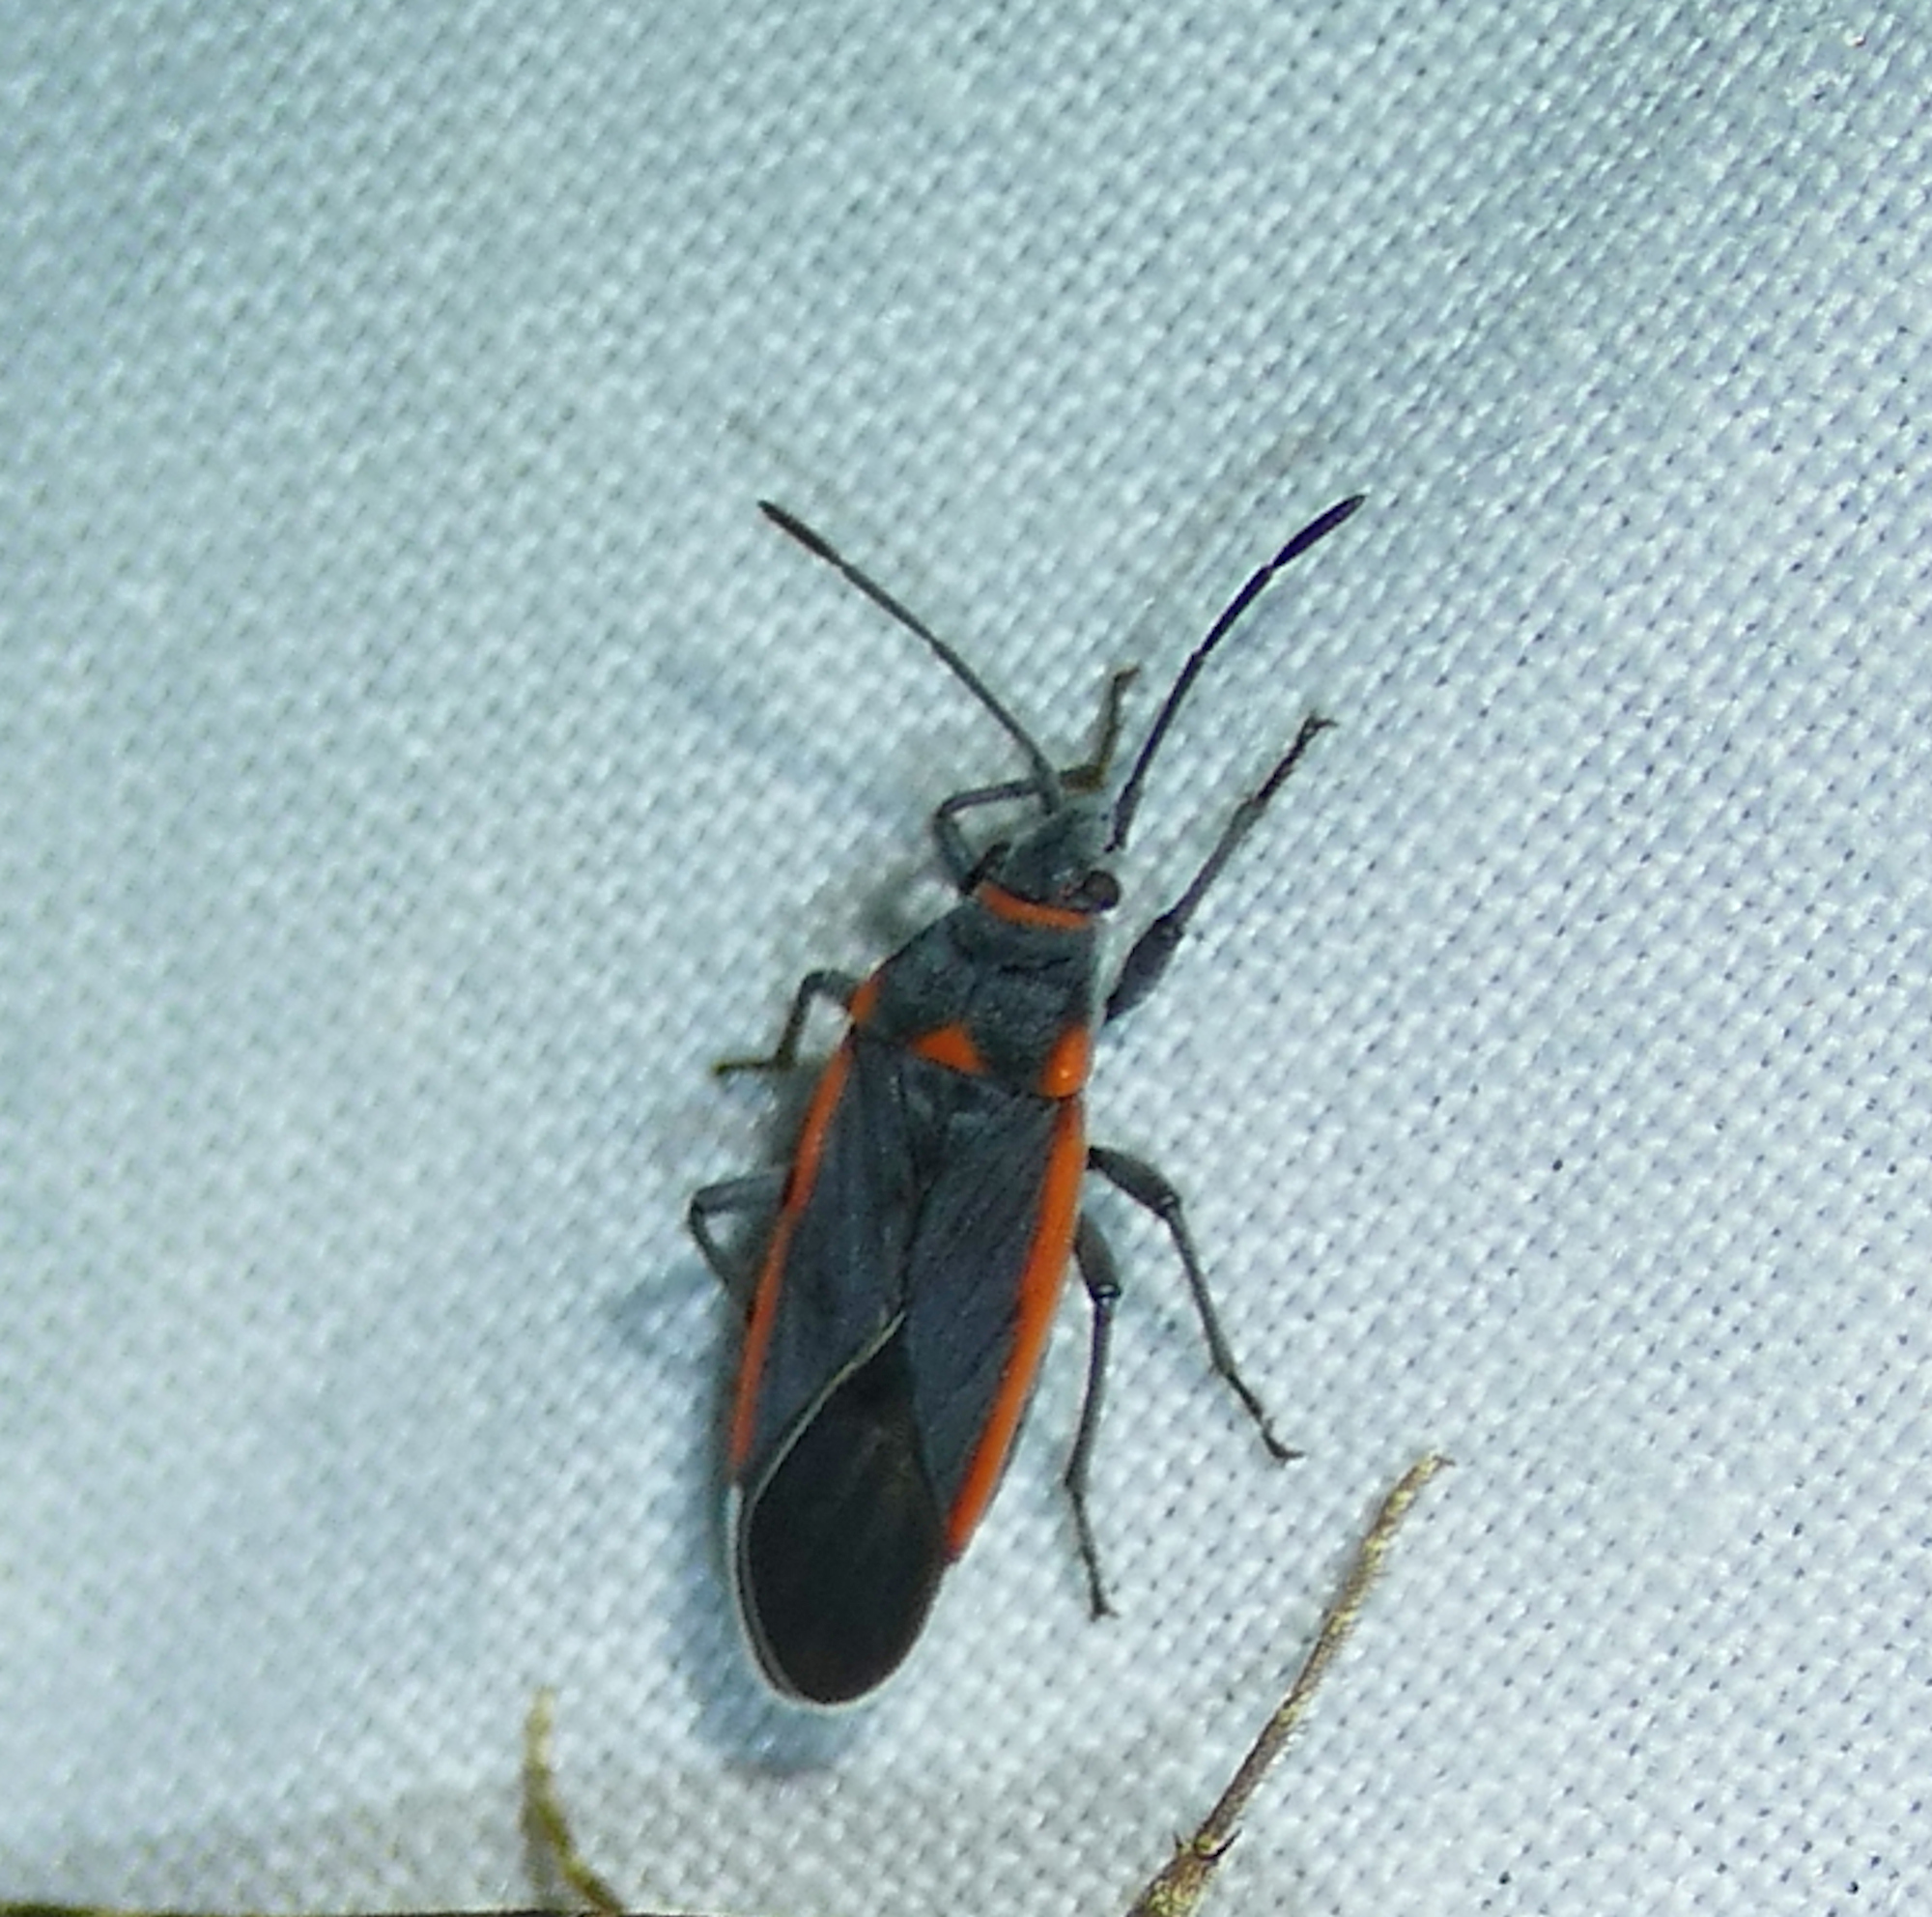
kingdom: Animalia
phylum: Arthropoda
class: Insecta
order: Hemiptera
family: Lygaeidae
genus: Melacoryphus
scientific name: Melacoryphus lateralis
